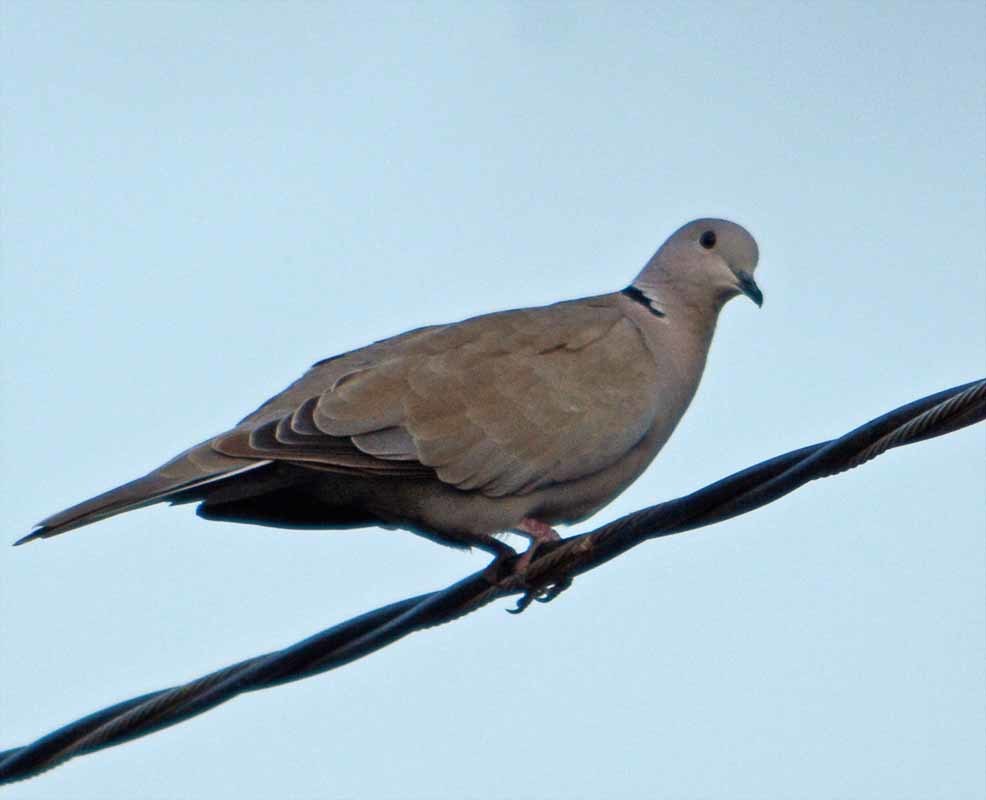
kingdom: Animalia
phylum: Chordata
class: Aves
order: Columbiformes
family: Columbidae
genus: Streptopelia
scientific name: Streptopelia decaocto
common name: Eurasian collared dove
